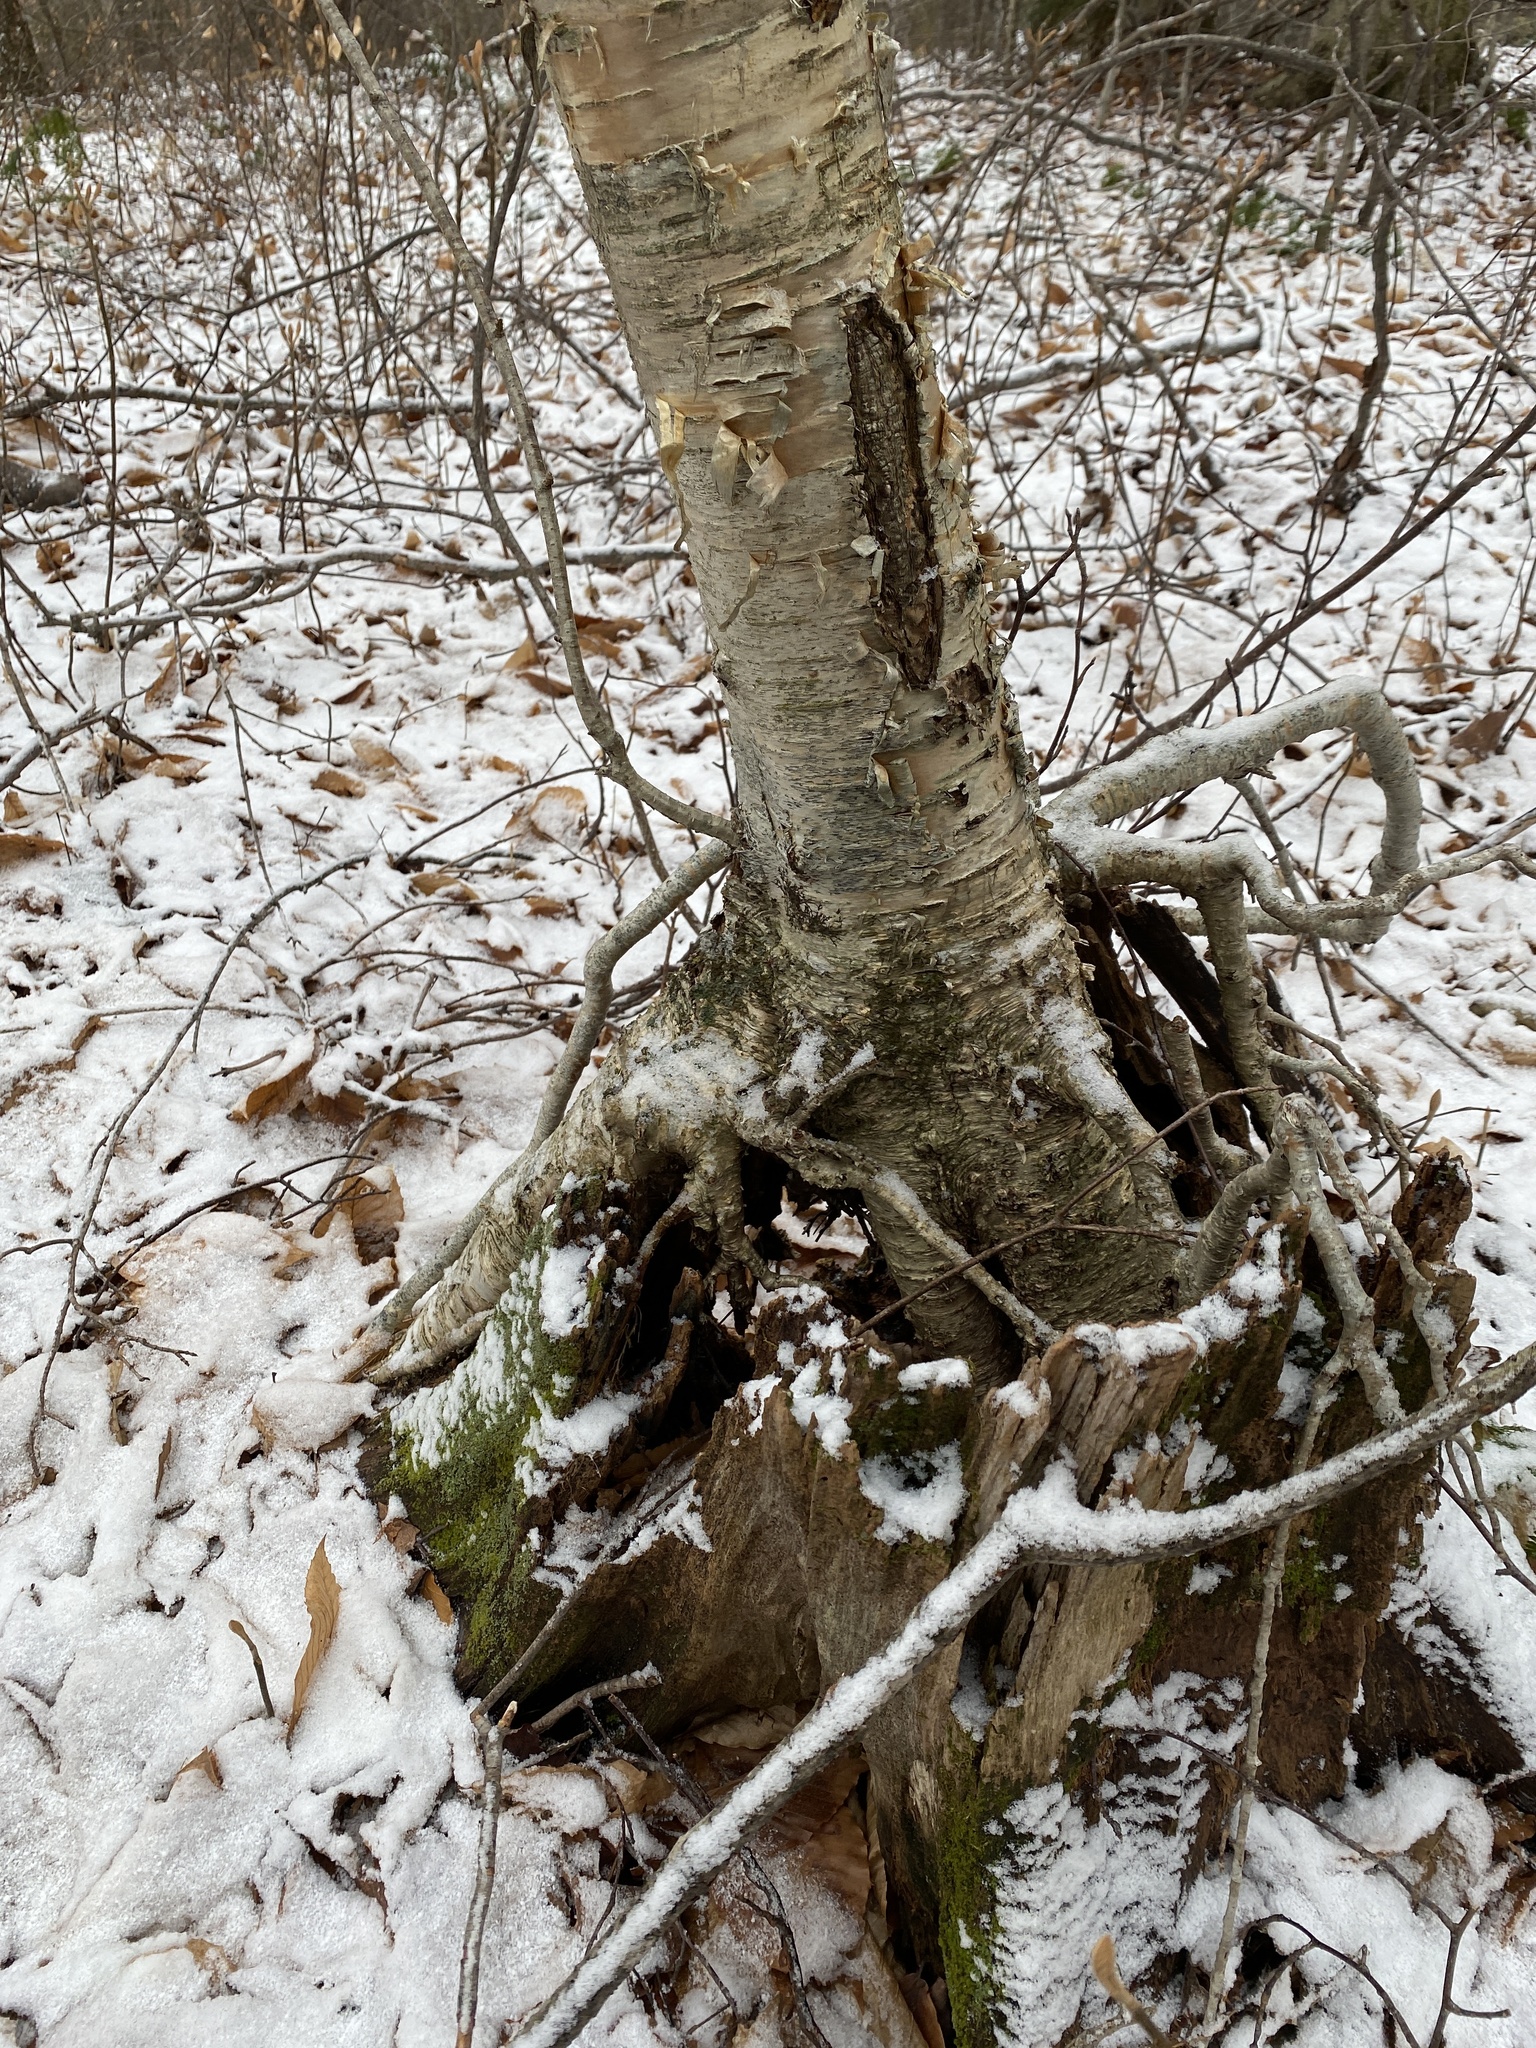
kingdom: Plantae
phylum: Tracheophyta
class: Magnoliopsida
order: Fagales
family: Betulaceae
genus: Betula
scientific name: Betula alleghaniensis
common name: Yellow birch
